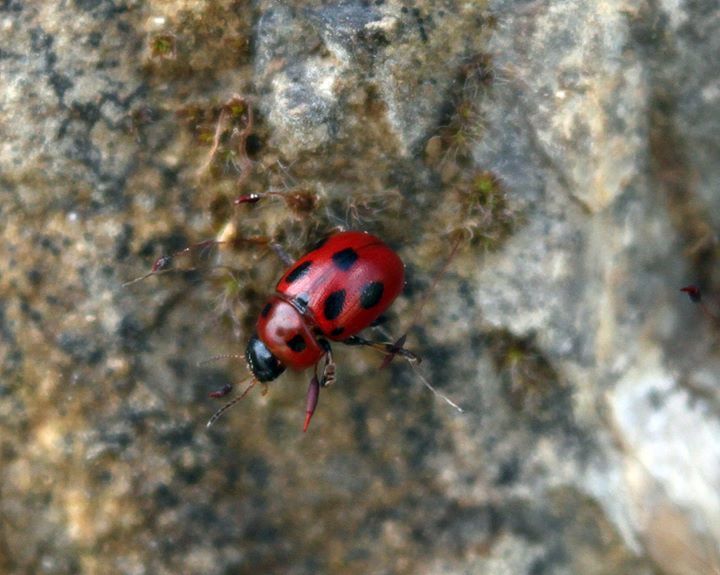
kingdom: Animalia
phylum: Arthropoda
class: Insecta
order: Coleoptera
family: Chrysomelidae
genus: Gonioctena
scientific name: Gonioctena fornicata
